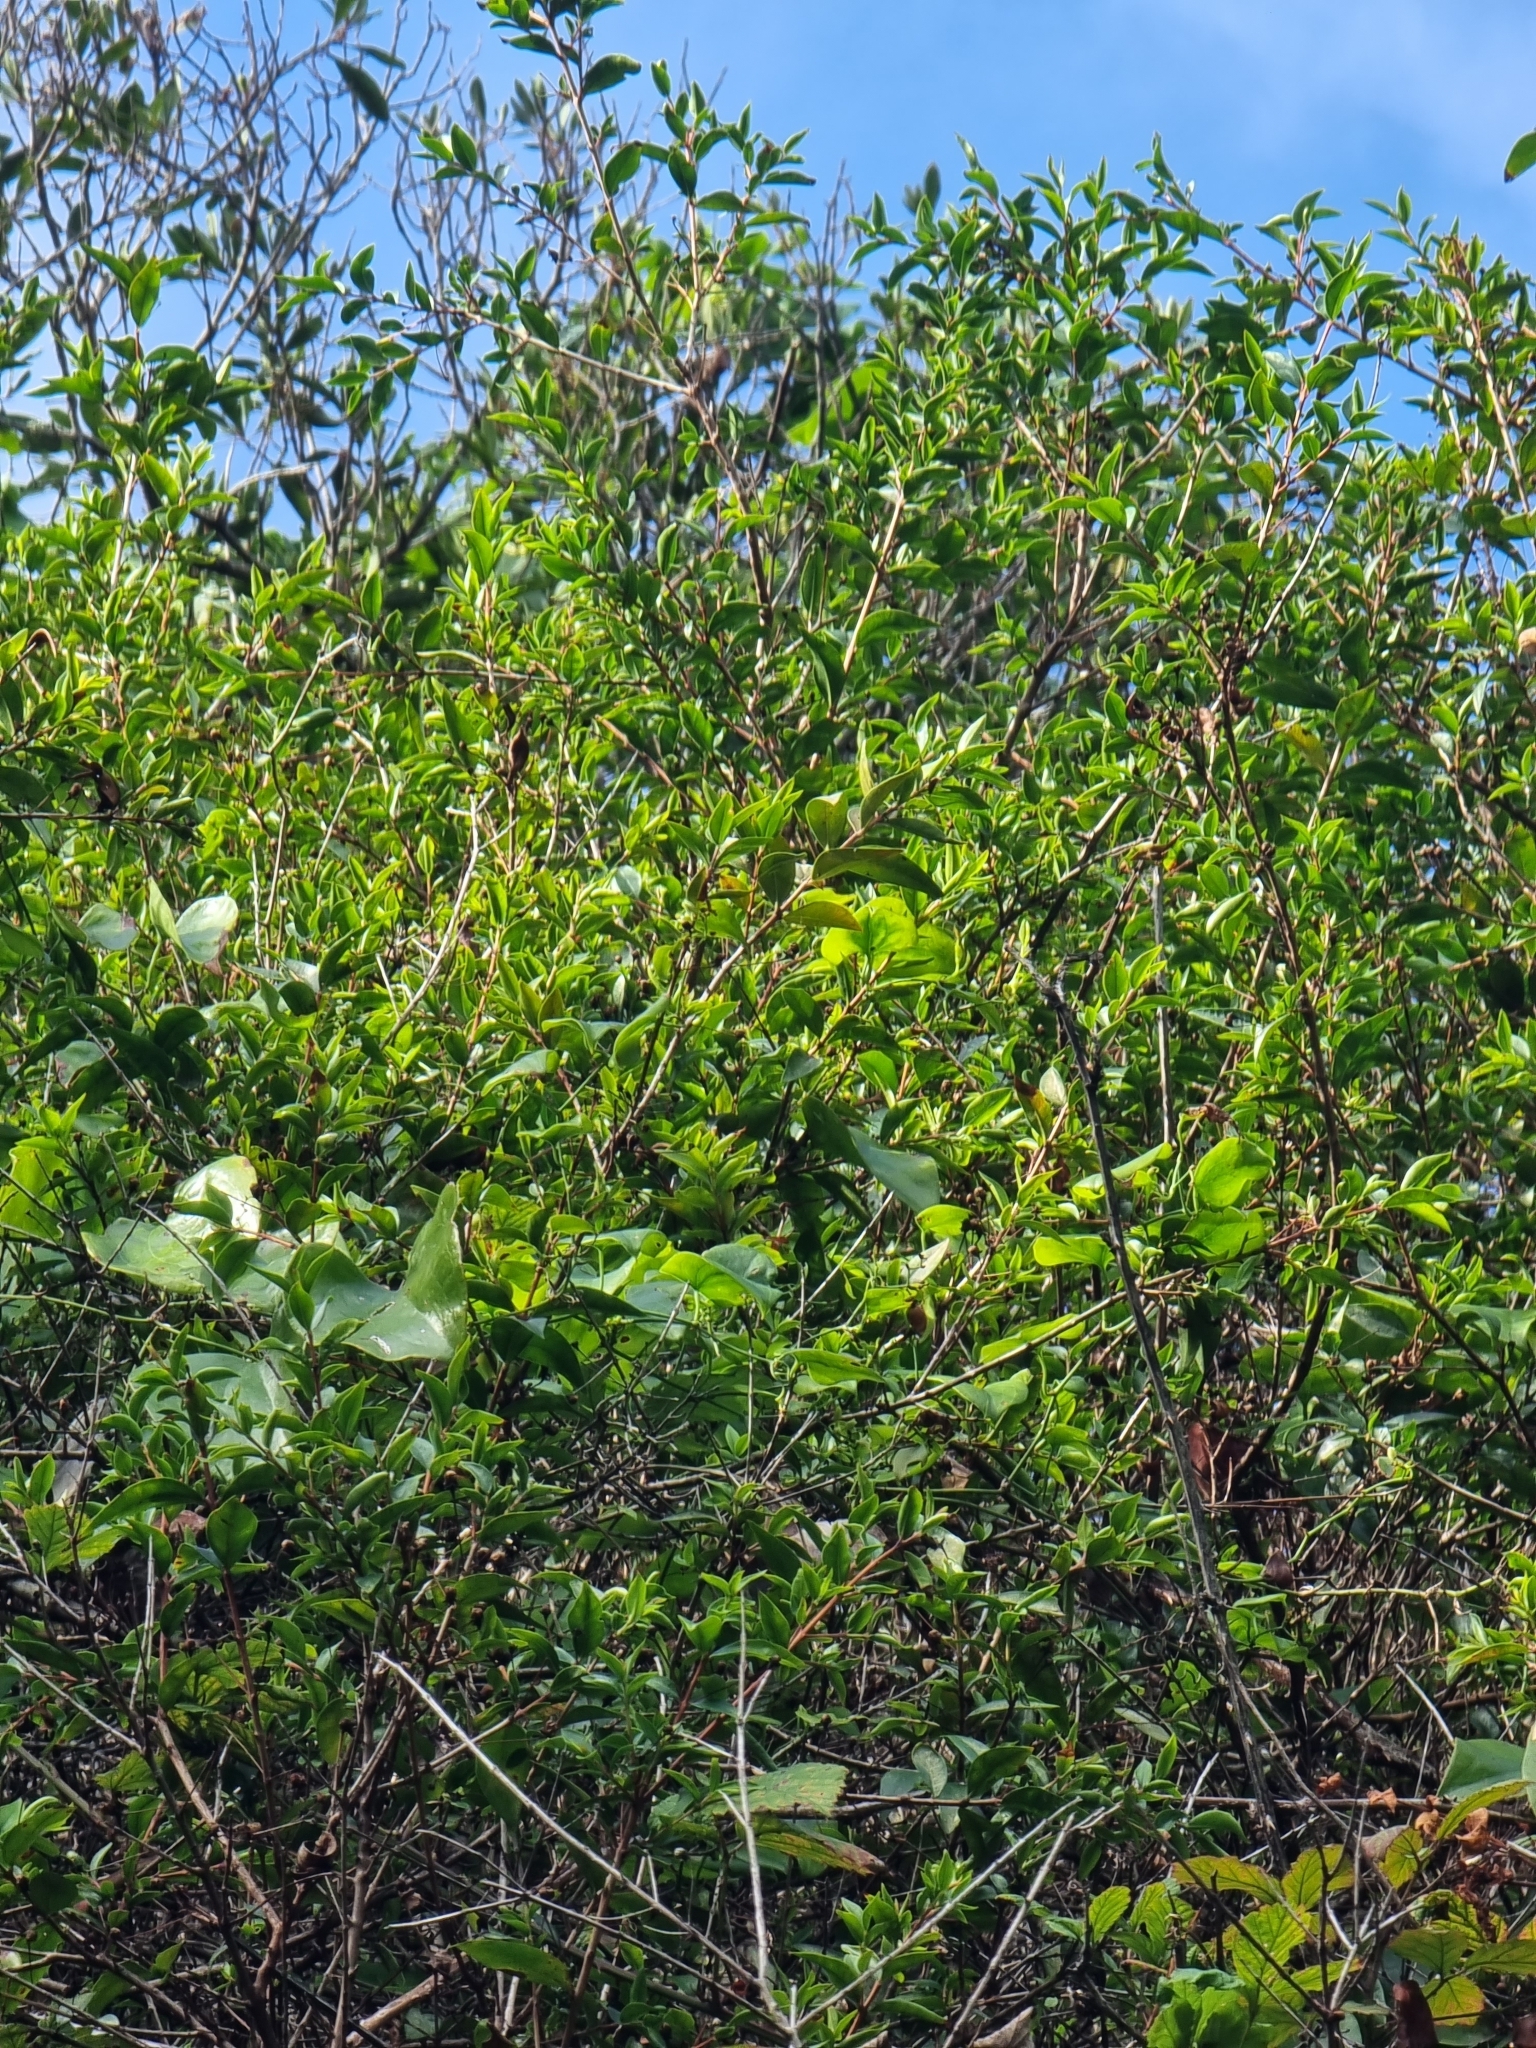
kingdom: Plantae
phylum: Tracheophyta
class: Magnoliopsida
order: Myrtales
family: Myrtaceae
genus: Myrtus
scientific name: Myrtus communis
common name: Myrtle
